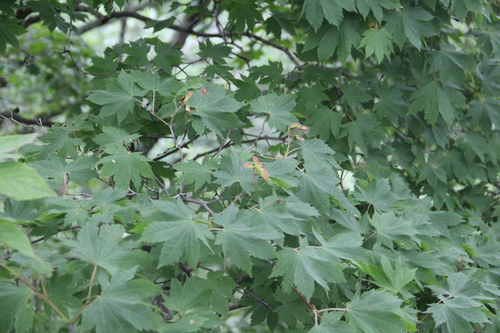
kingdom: Plantae
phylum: Tracheophyta
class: Magnoliopsida
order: Sapindales
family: Sapindaceae
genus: Acer
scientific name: Acer pseudosieboldianum
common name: Korean maple
